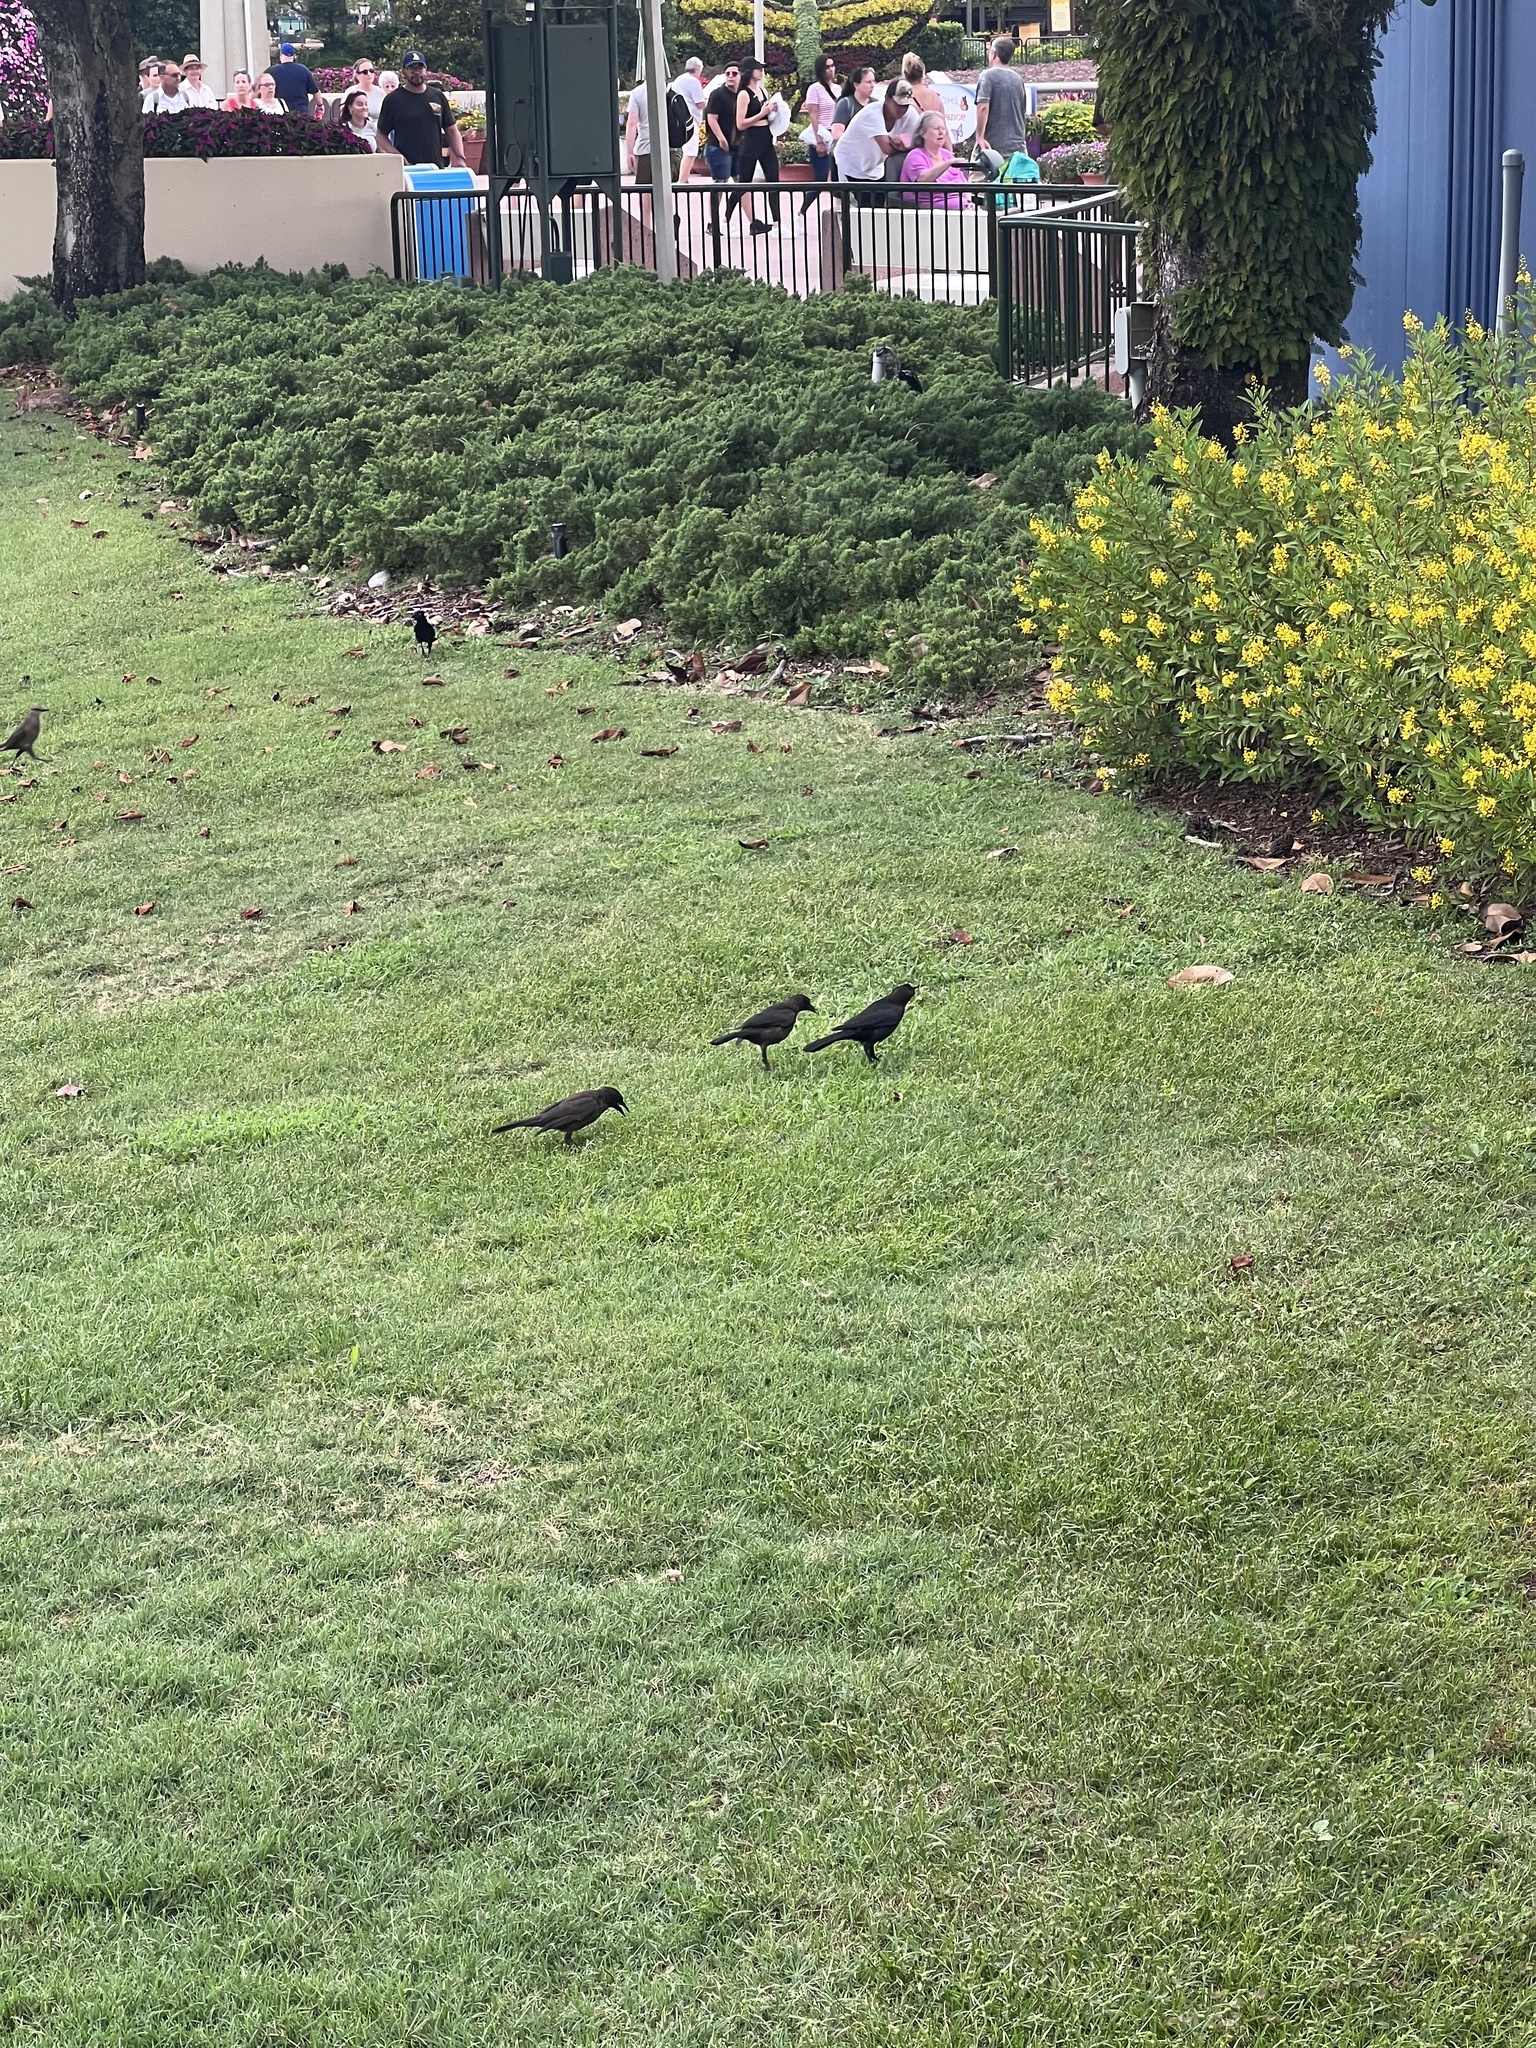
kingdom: Animalia
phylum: Chordata
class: Aves
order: Passeriformes
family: Icteridae
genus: Quiscalus
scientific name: Quiscalus quiscula
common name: Common grackle
